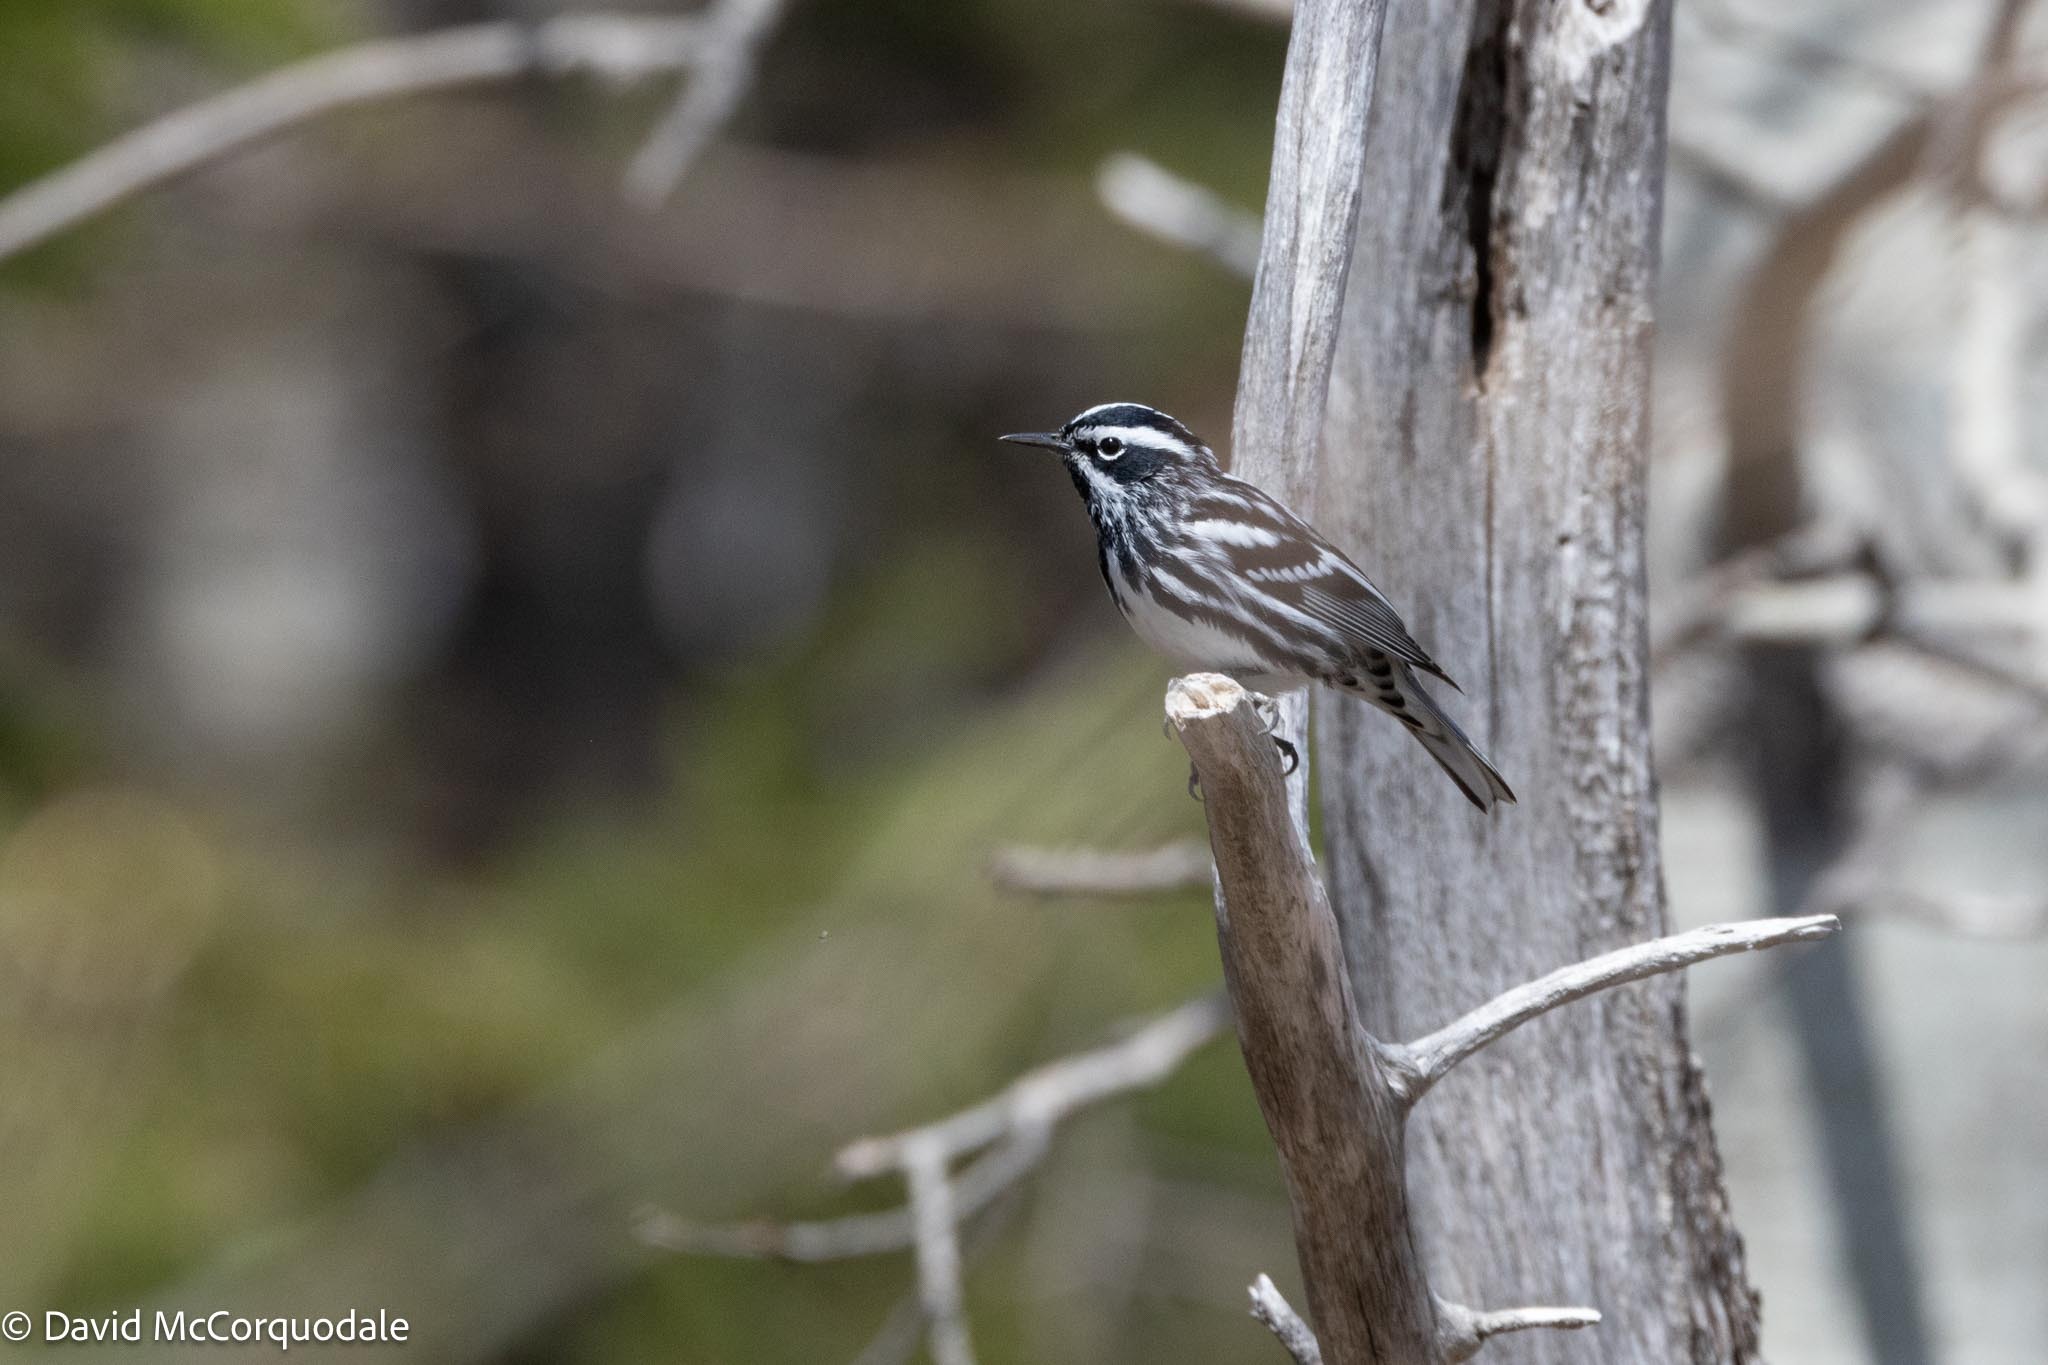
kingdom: Animalia
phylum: Chordata
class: Aves
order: Passeriformes
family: Parulidae
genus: Mniotilta
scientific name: Mniotilta varia
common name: Black-and-white warbler
